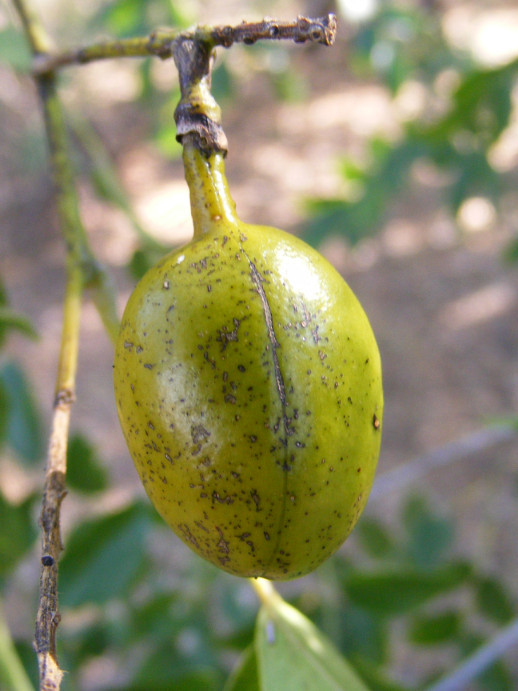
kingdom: Plantae
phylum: Tracheophyta
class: Magnoliopsida
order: Fabales
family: Fabaceae
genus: Xanthocercis
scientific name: Xanthocercis zambesiaca
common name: Nyala-tree
